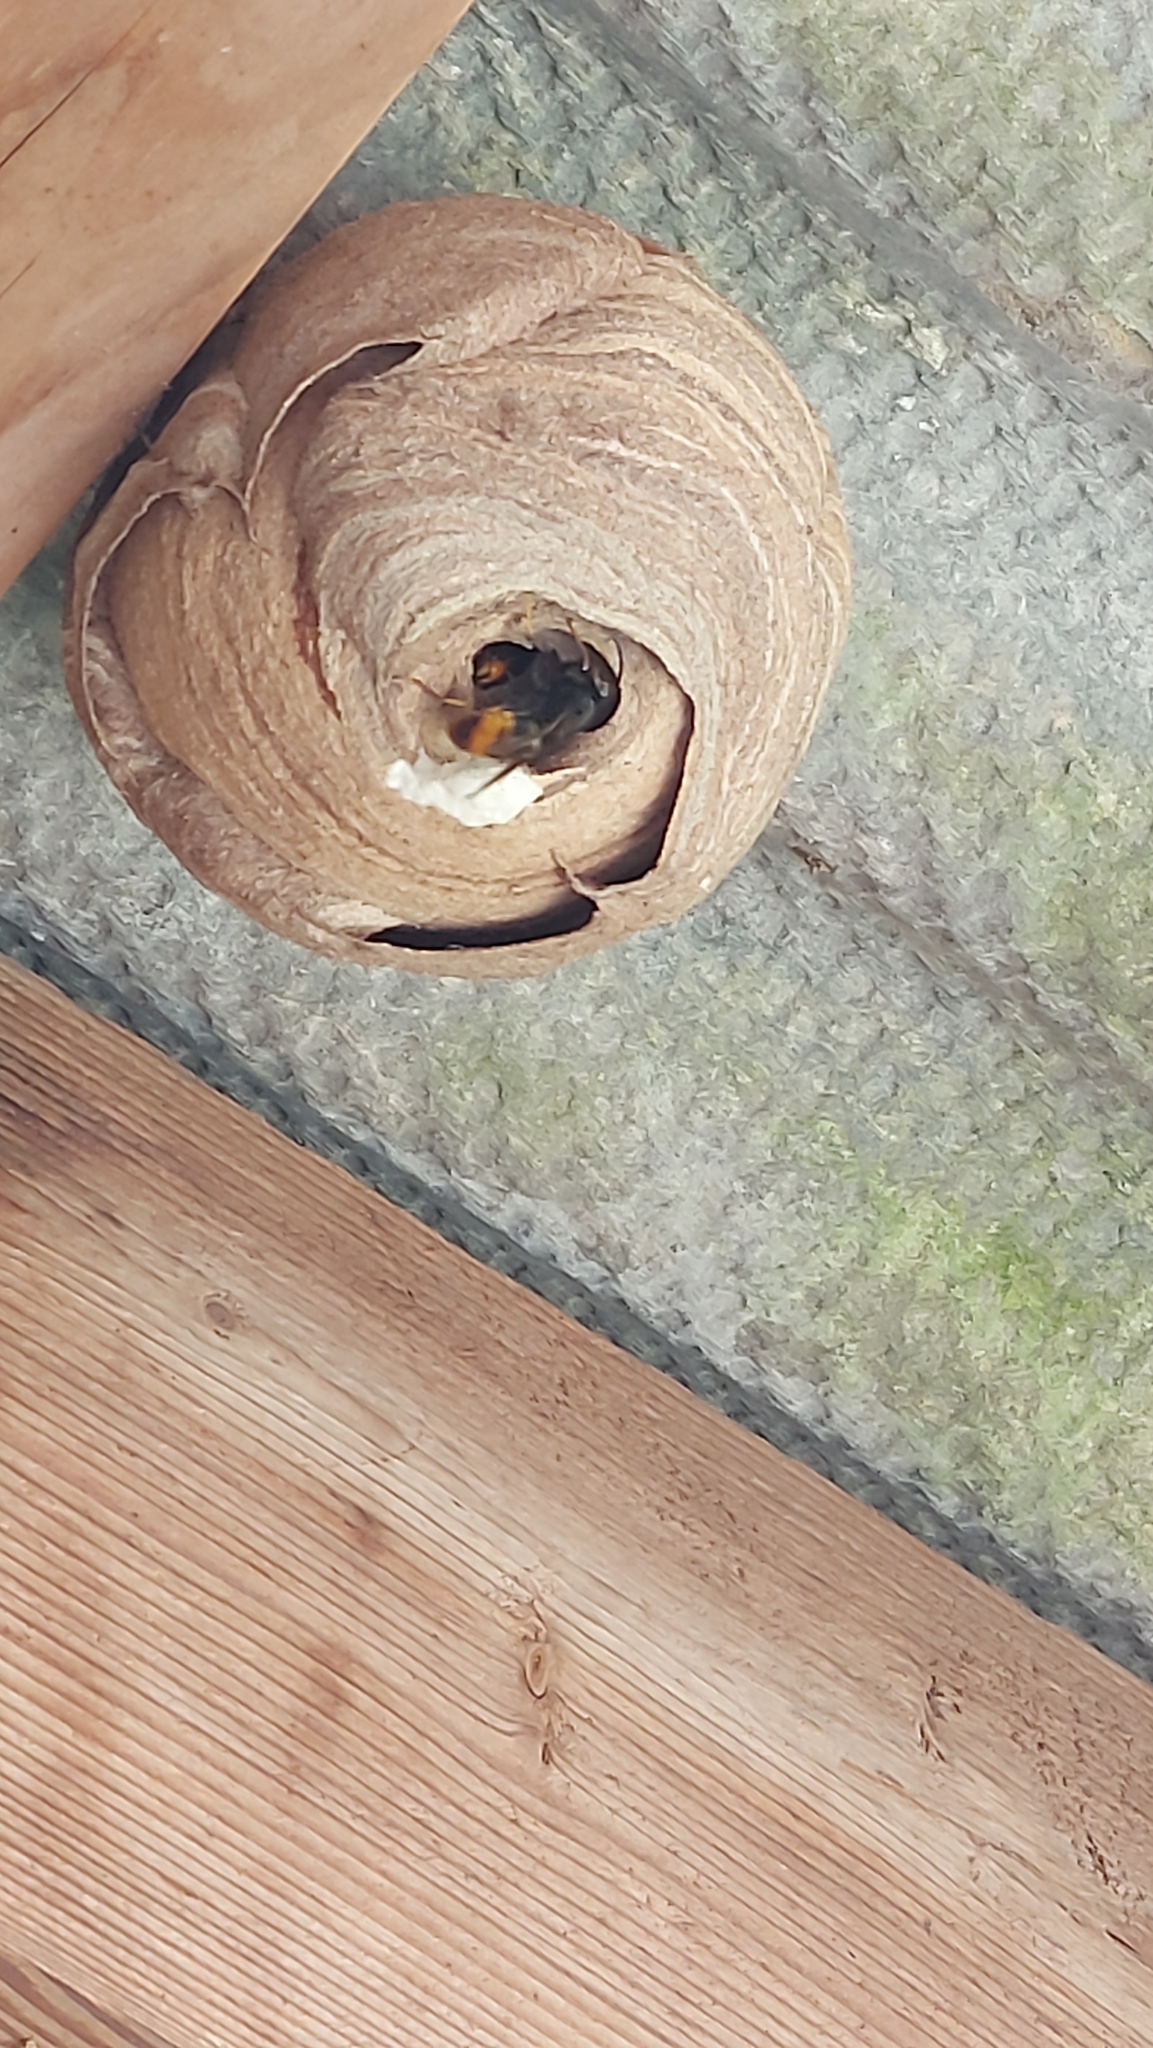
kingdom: Animalia
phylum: Arthropoda
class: Insecta
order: Hymenoptera
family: Vespidae
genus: Vespa
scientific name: Vespa velutina
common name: Asian hornet
